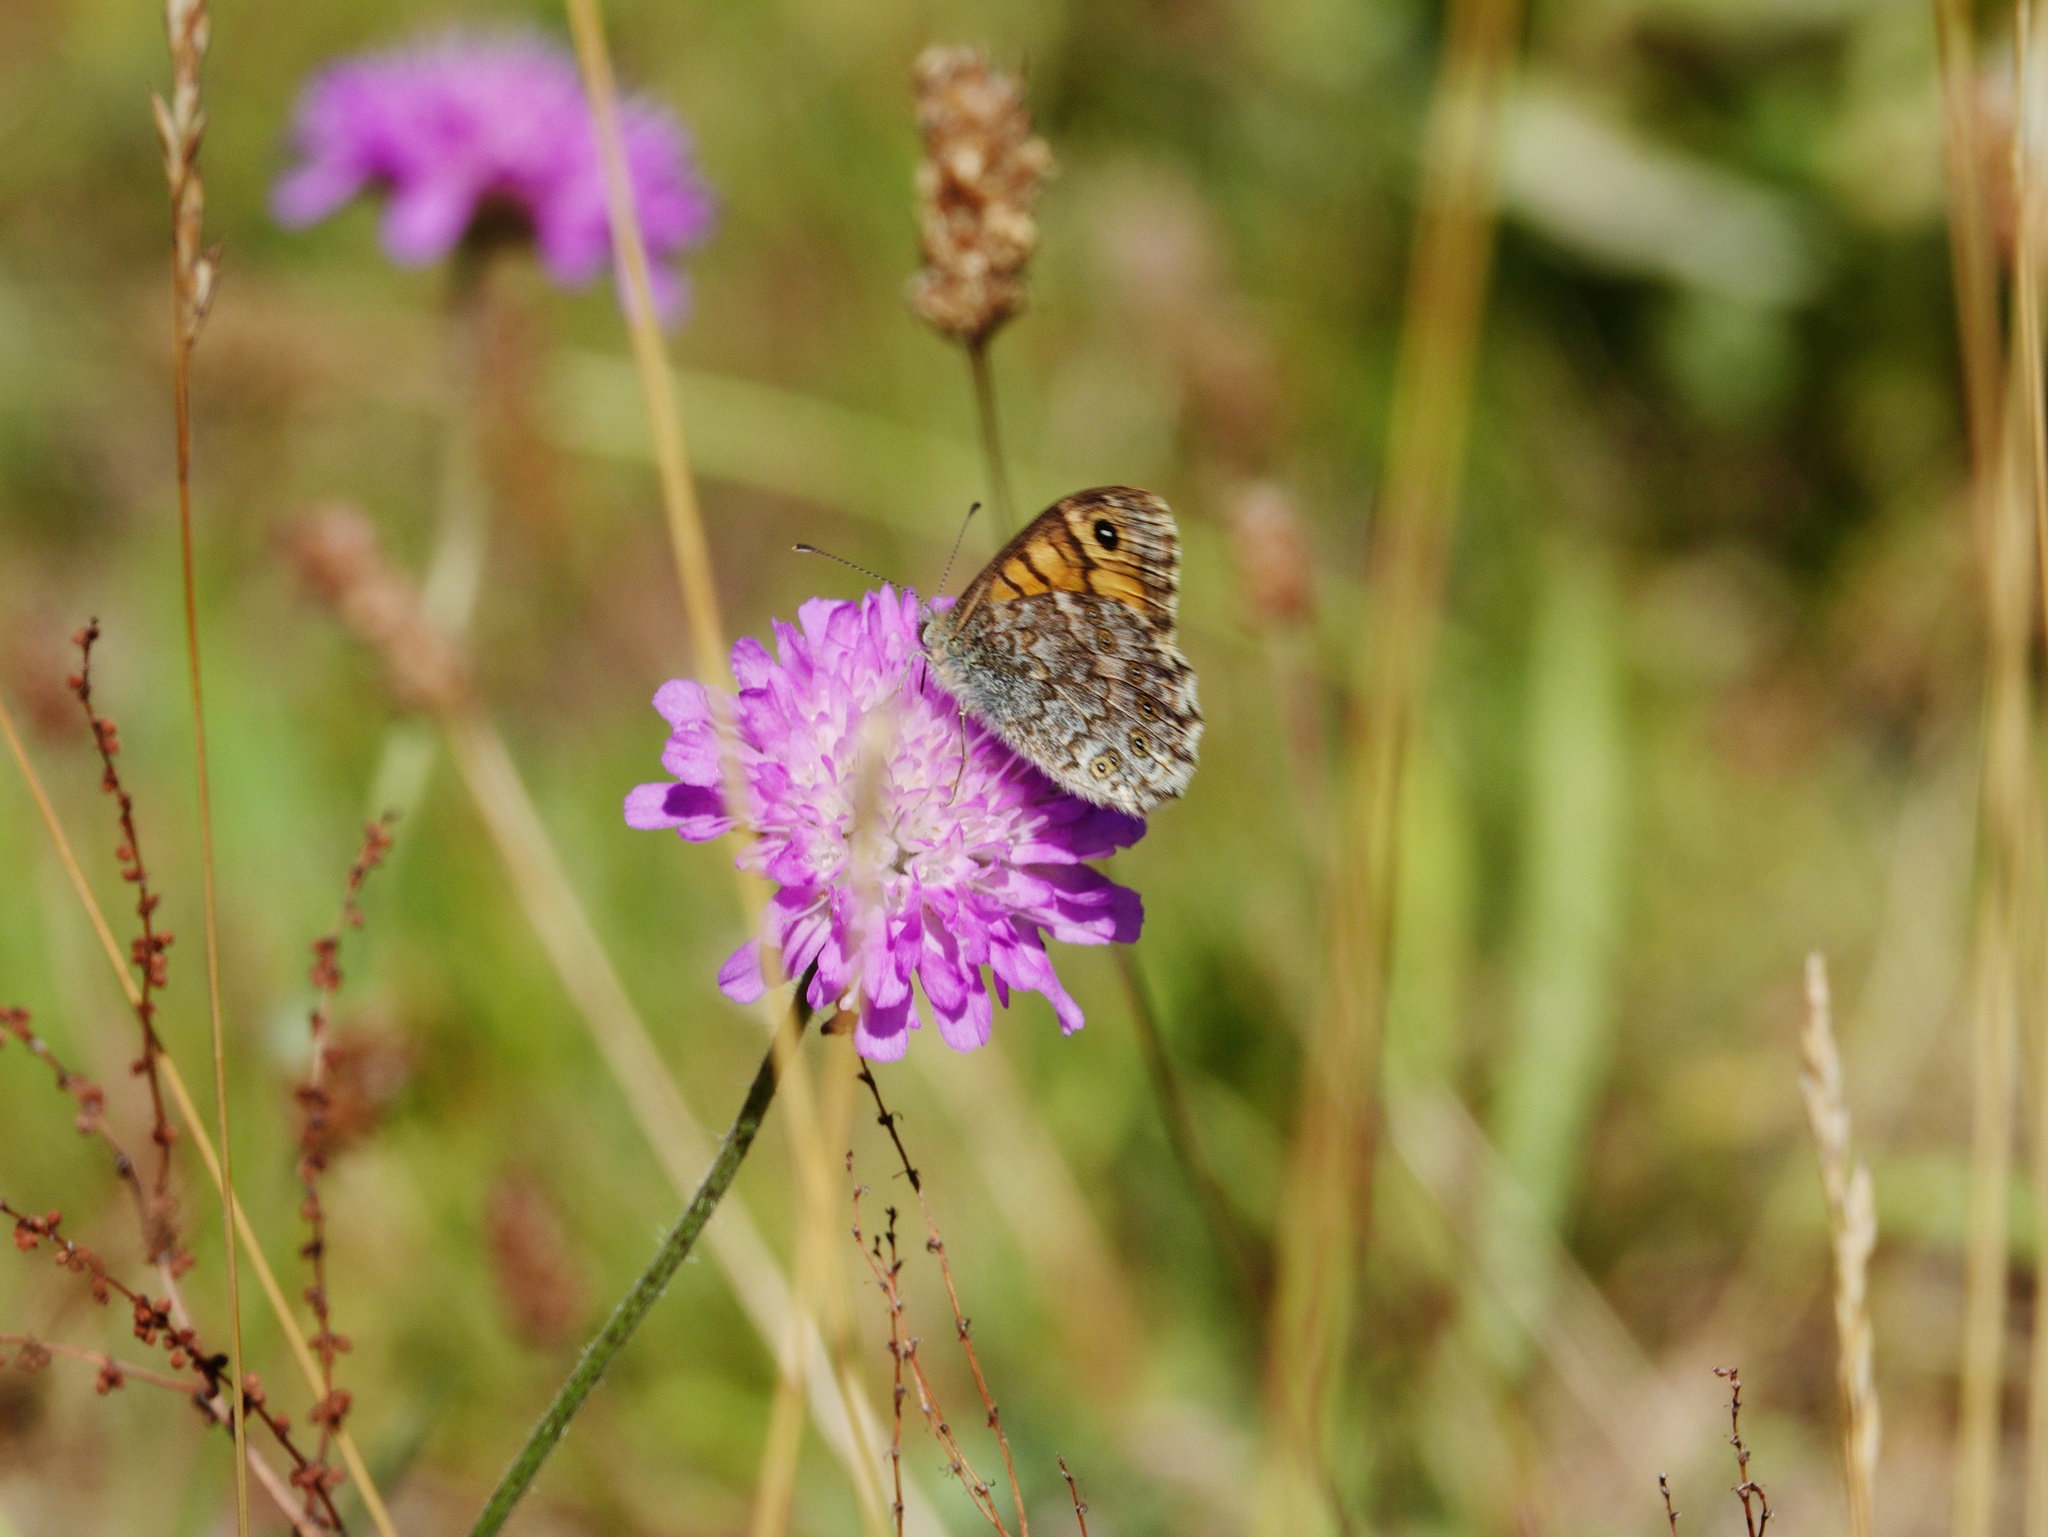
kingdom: Animalia
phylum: Arthropoda
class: Insecta
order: Lepidoptera
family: Nymphalidae
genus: Pararge
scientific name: Pararge Lasiommata megera
